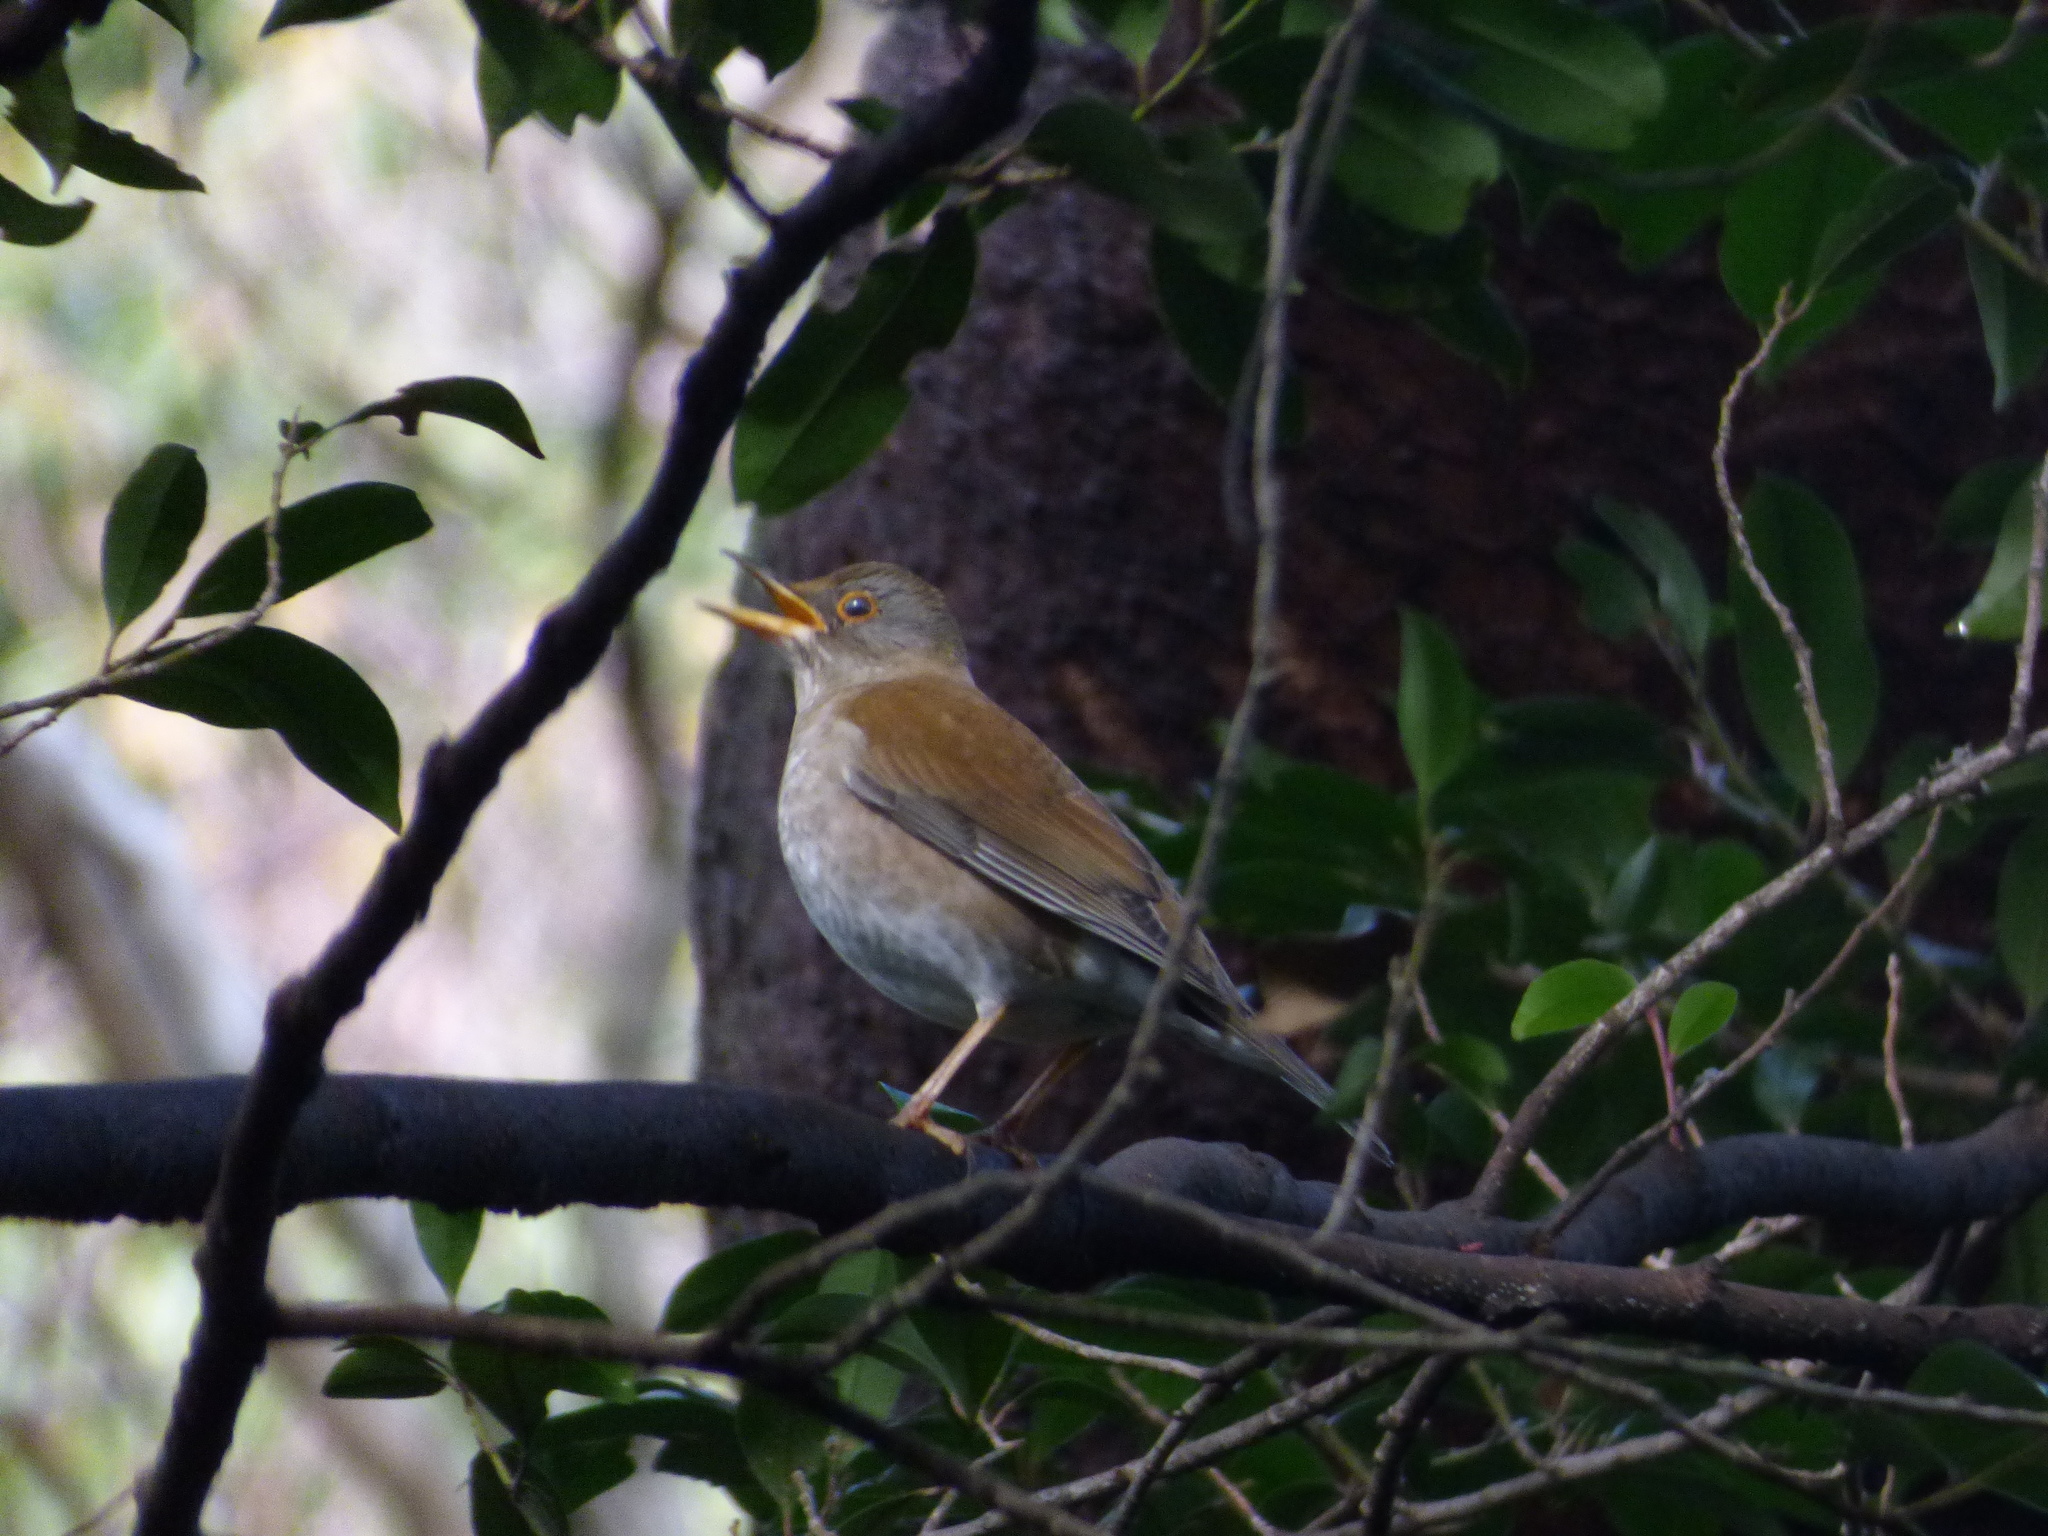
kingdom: Animalia
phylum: Chordata
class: Aves
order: Passeriformes
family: Turdidae
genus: Turdus
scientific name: Turdus pallidus
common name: Pale thrush
